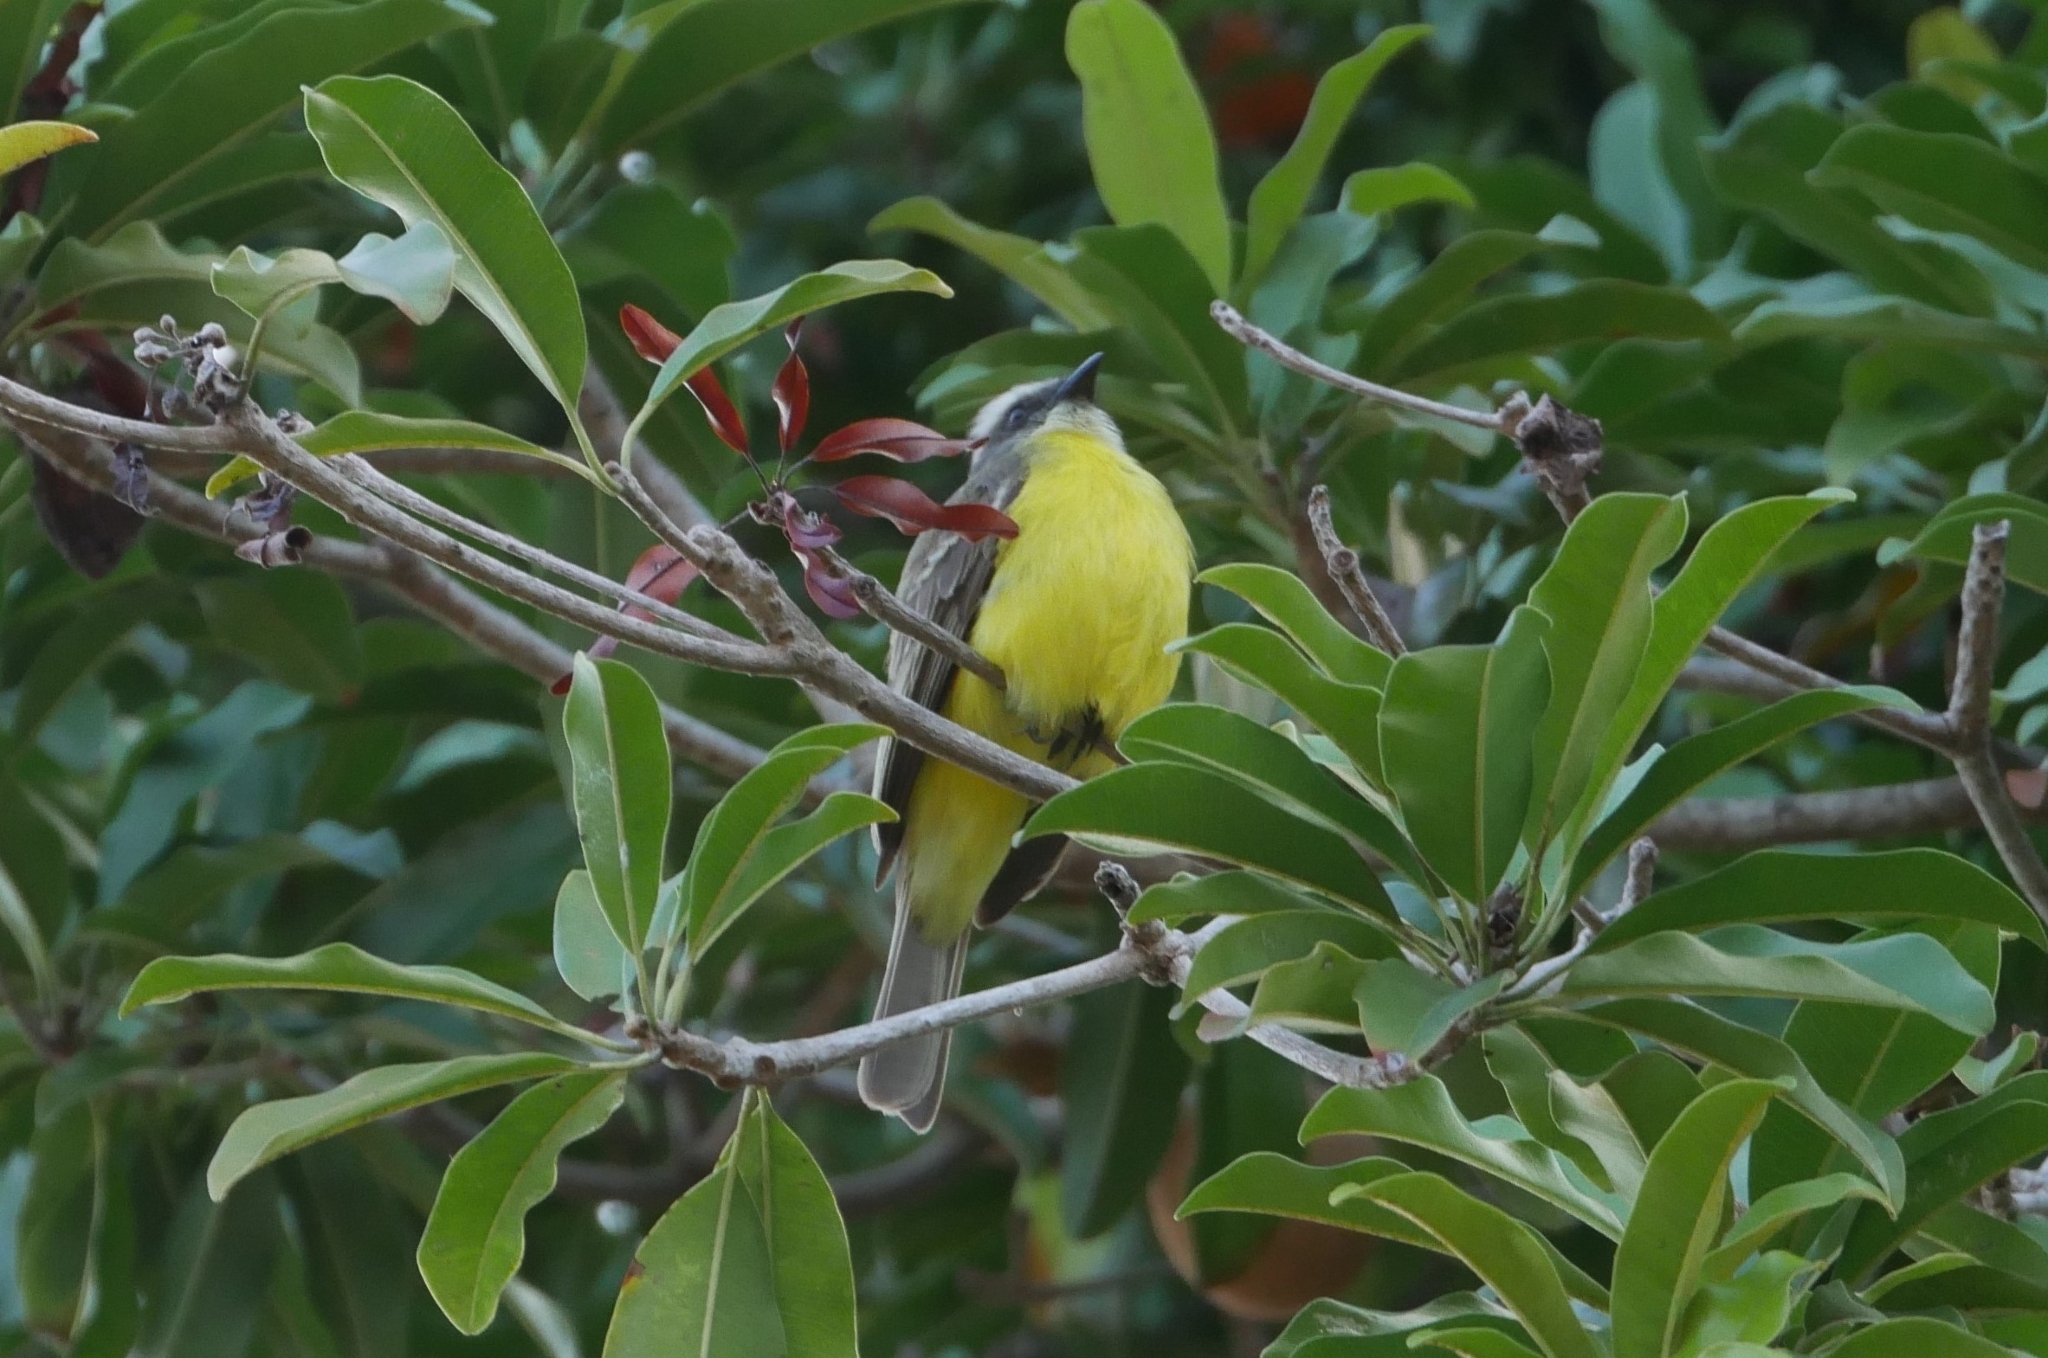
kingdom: Animalia
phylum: Chordata
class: Aves
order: Passeriformes
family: Tyrannidae
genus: Myiozetetes
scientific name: Myiozetetes similis
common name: Social flycatcher
